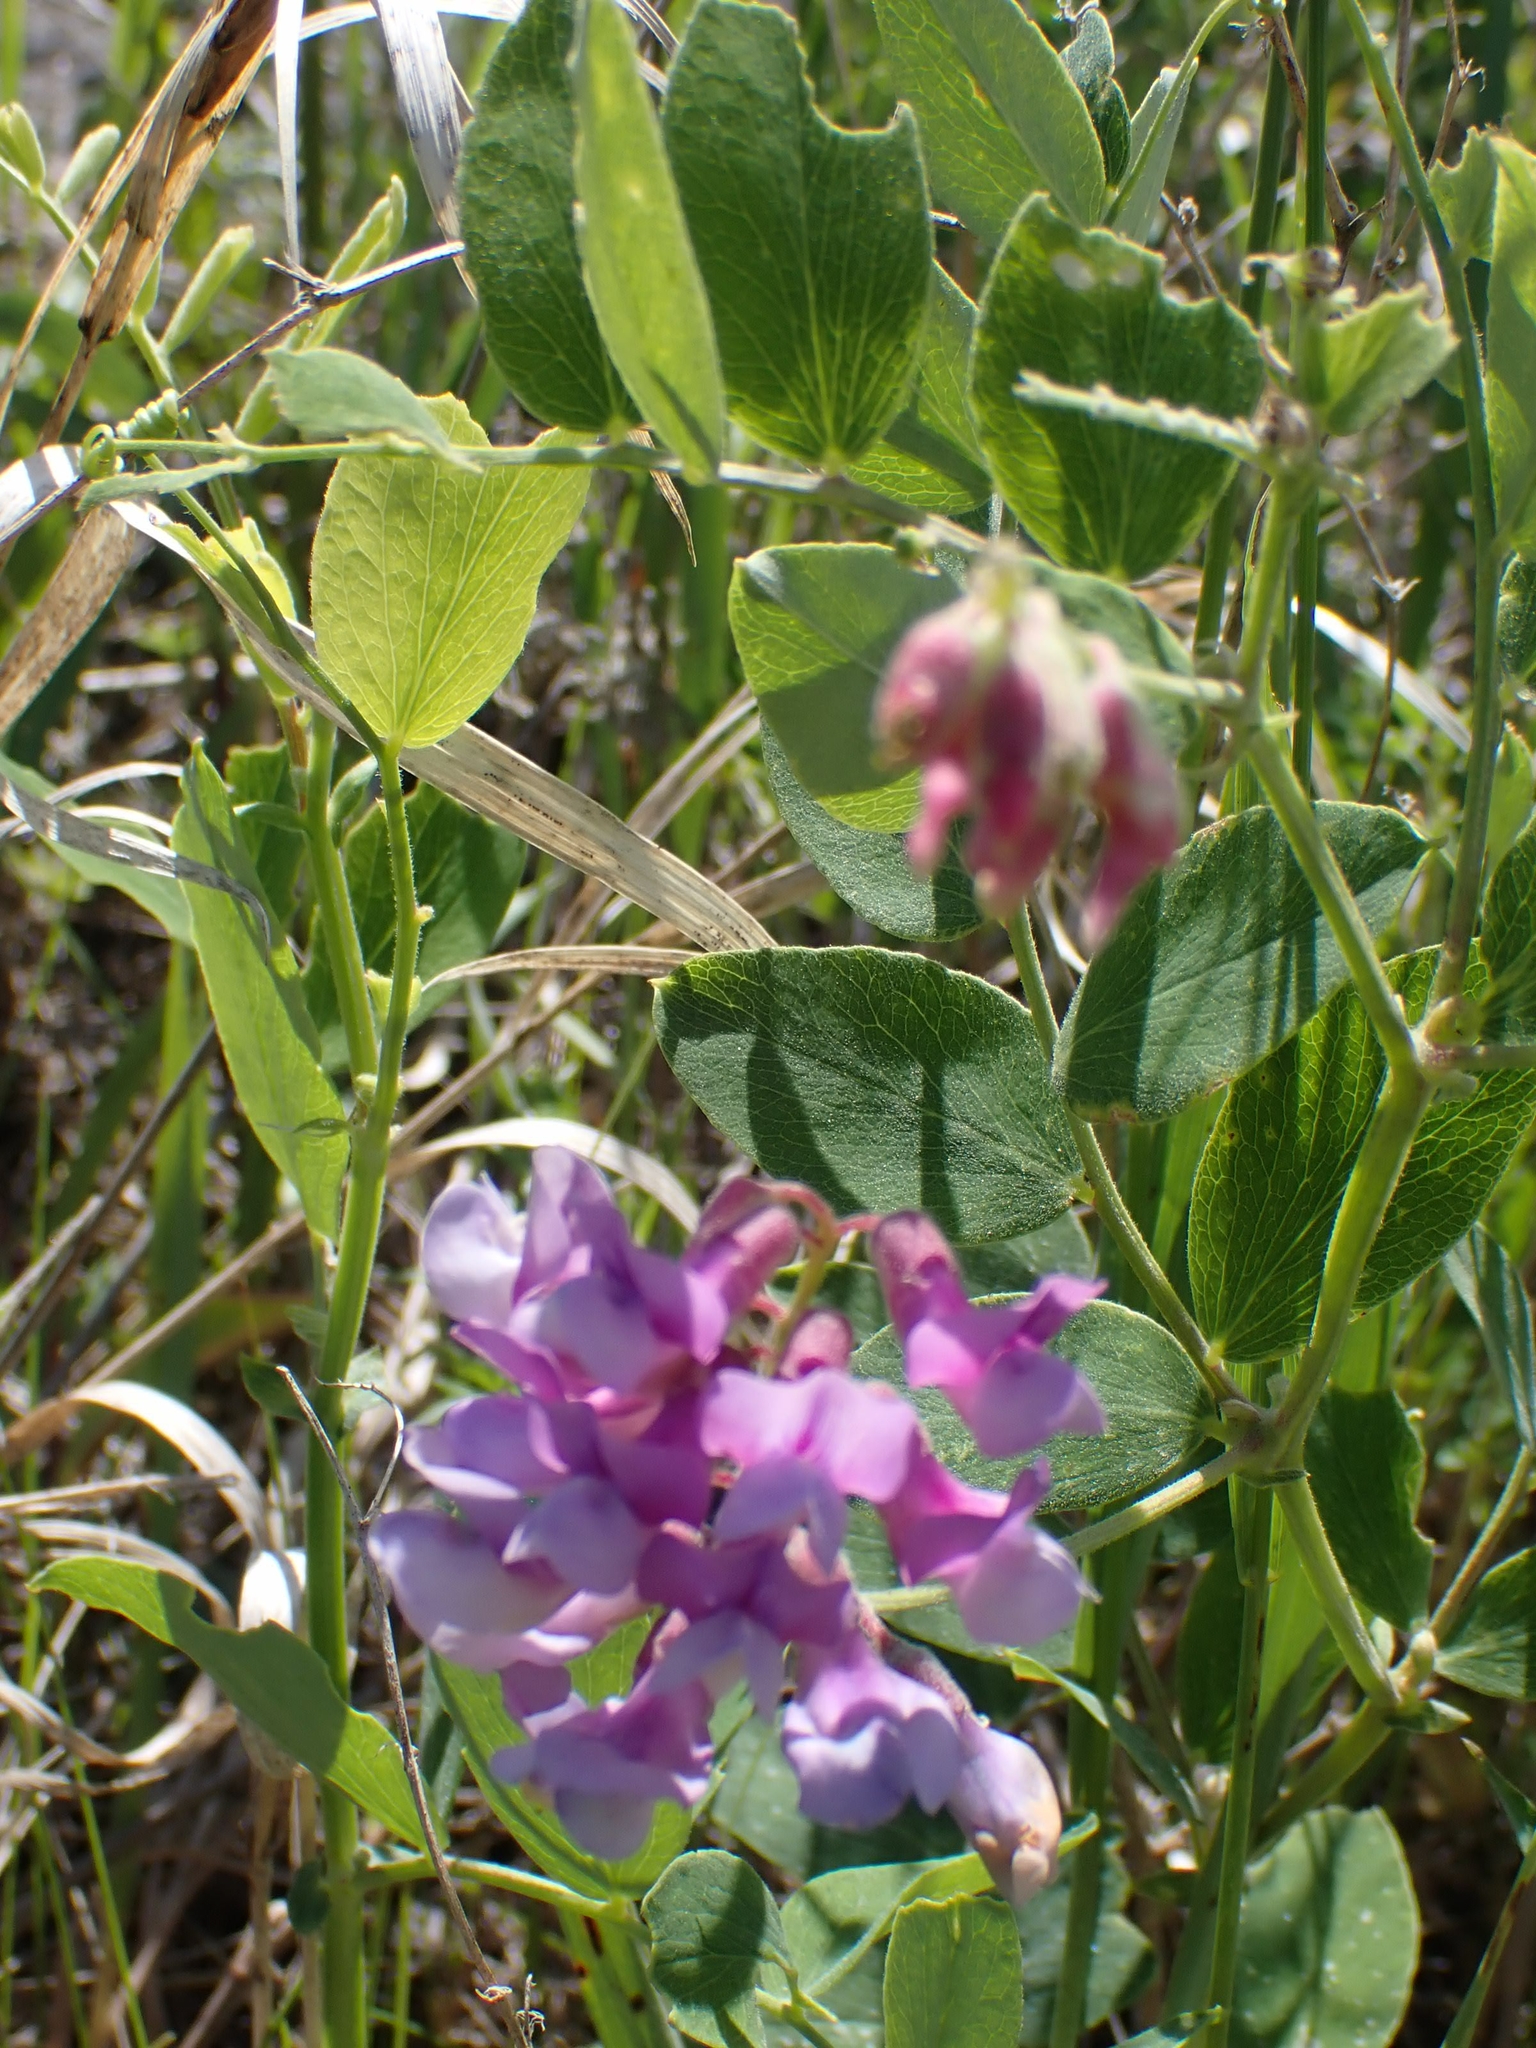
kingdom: Plantae
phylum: Tracheophyta
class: Magnoliopsida
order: Fabales
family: Fabaceae
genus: Lathyrus
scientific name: Lathyrus venosus
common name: Forest-pea
